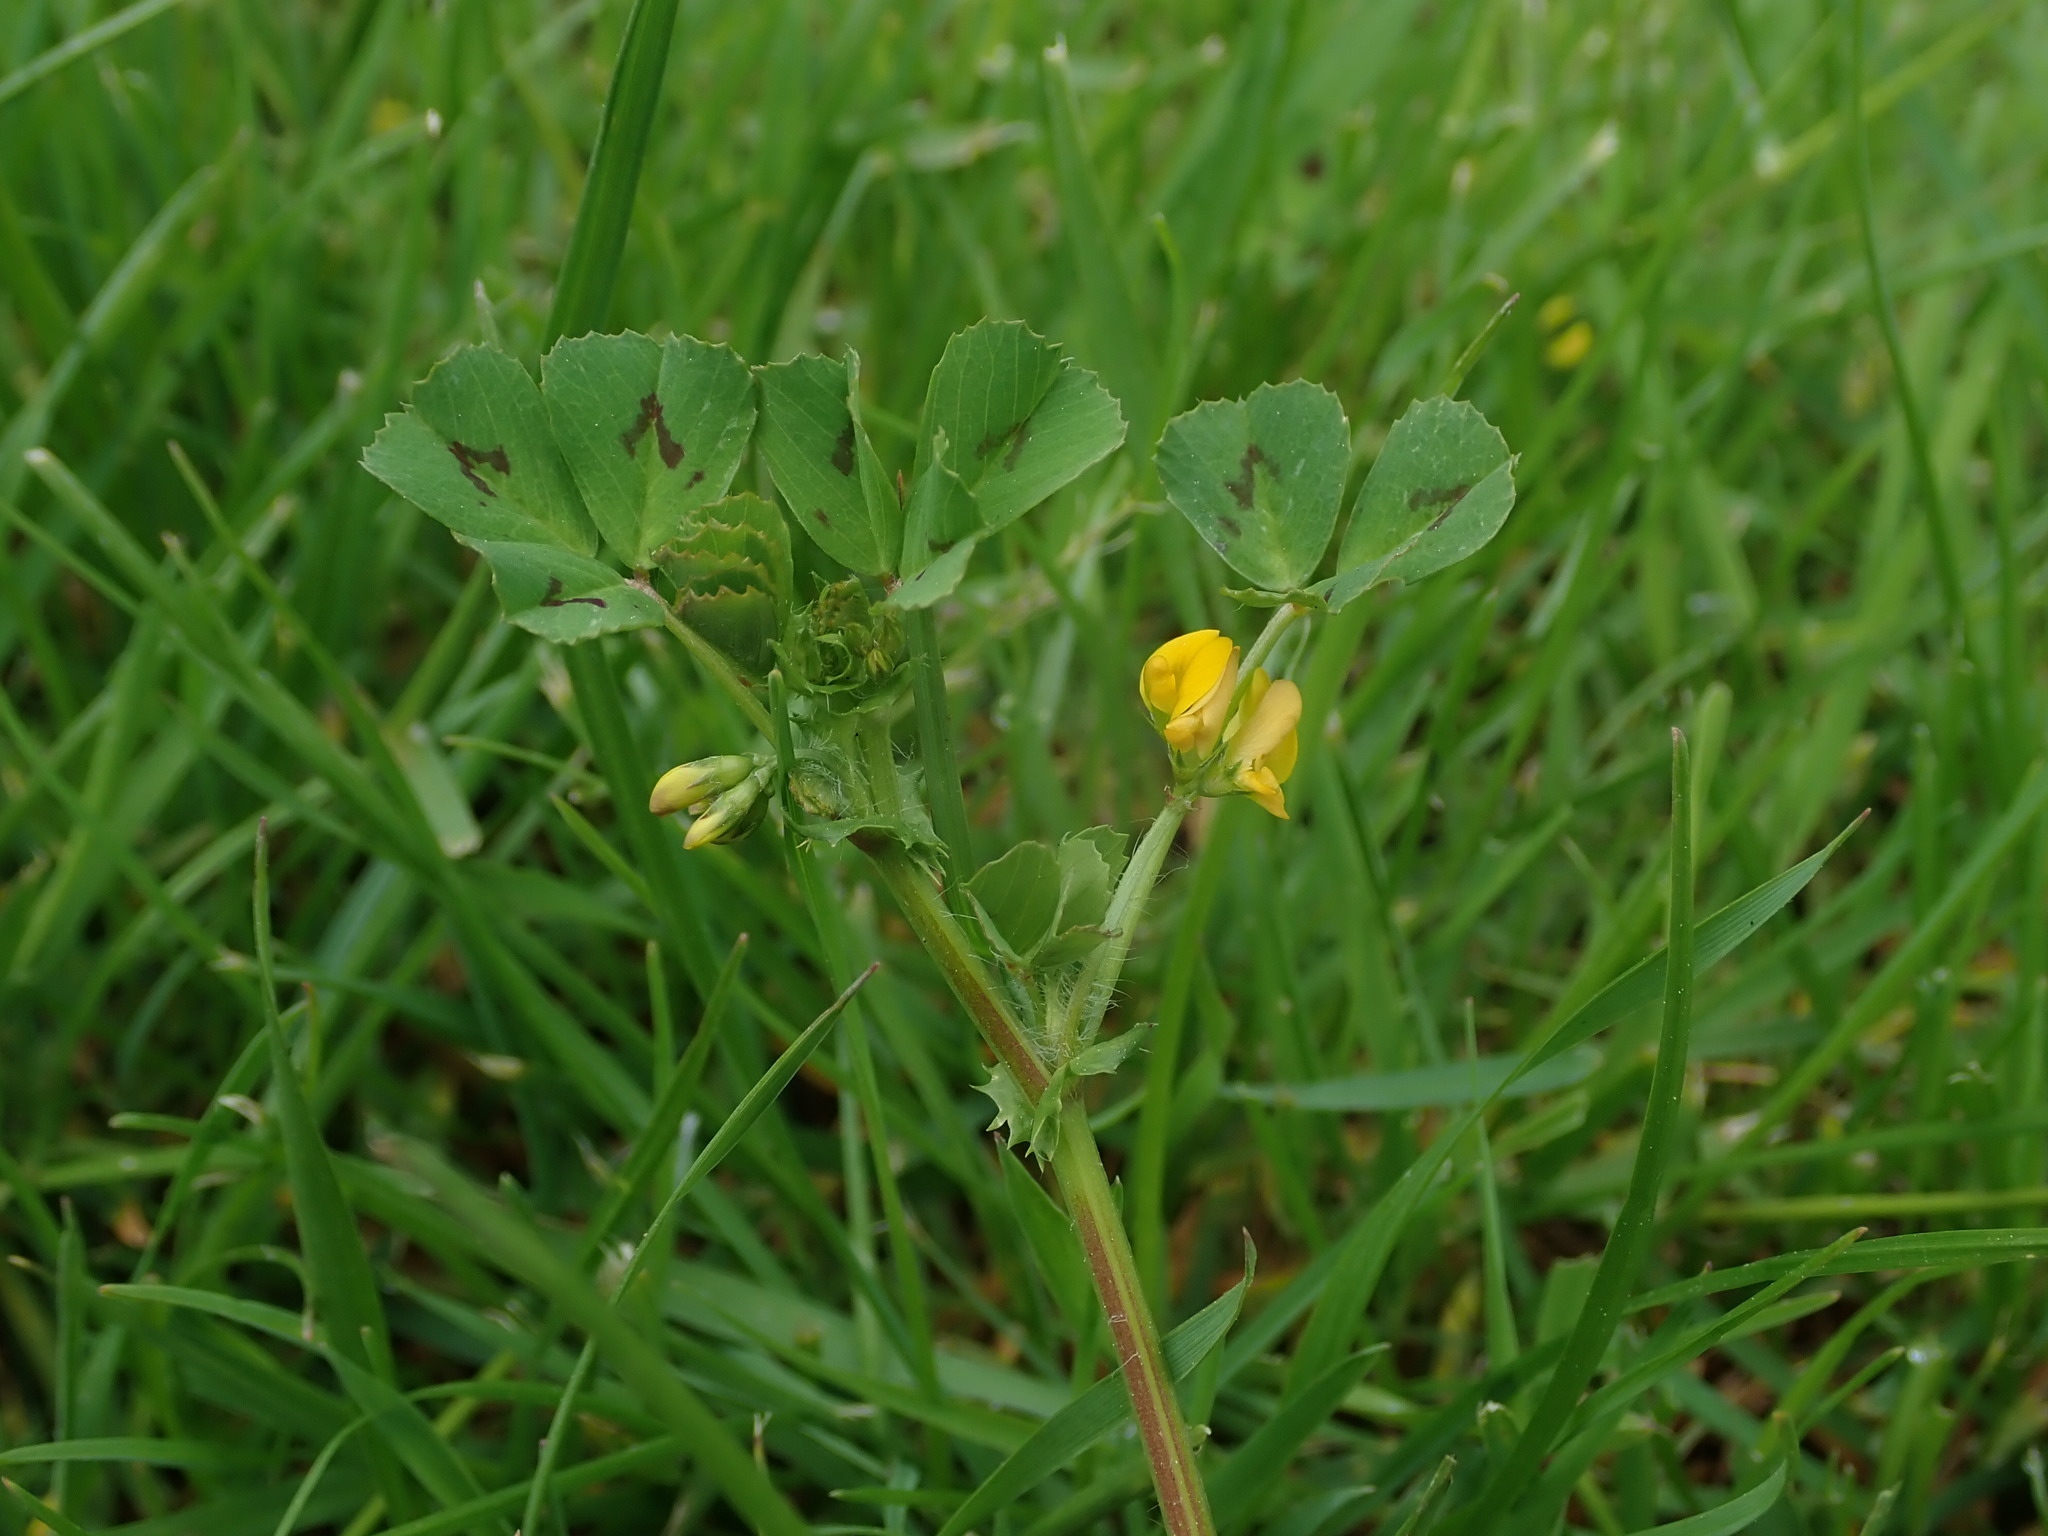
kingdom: Plantae
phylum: Tracheophyta
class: Magnoliopsida
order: Fabales
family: Fabaceae
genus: Medicago
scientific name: Medicago arabica
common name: Spotted medick
